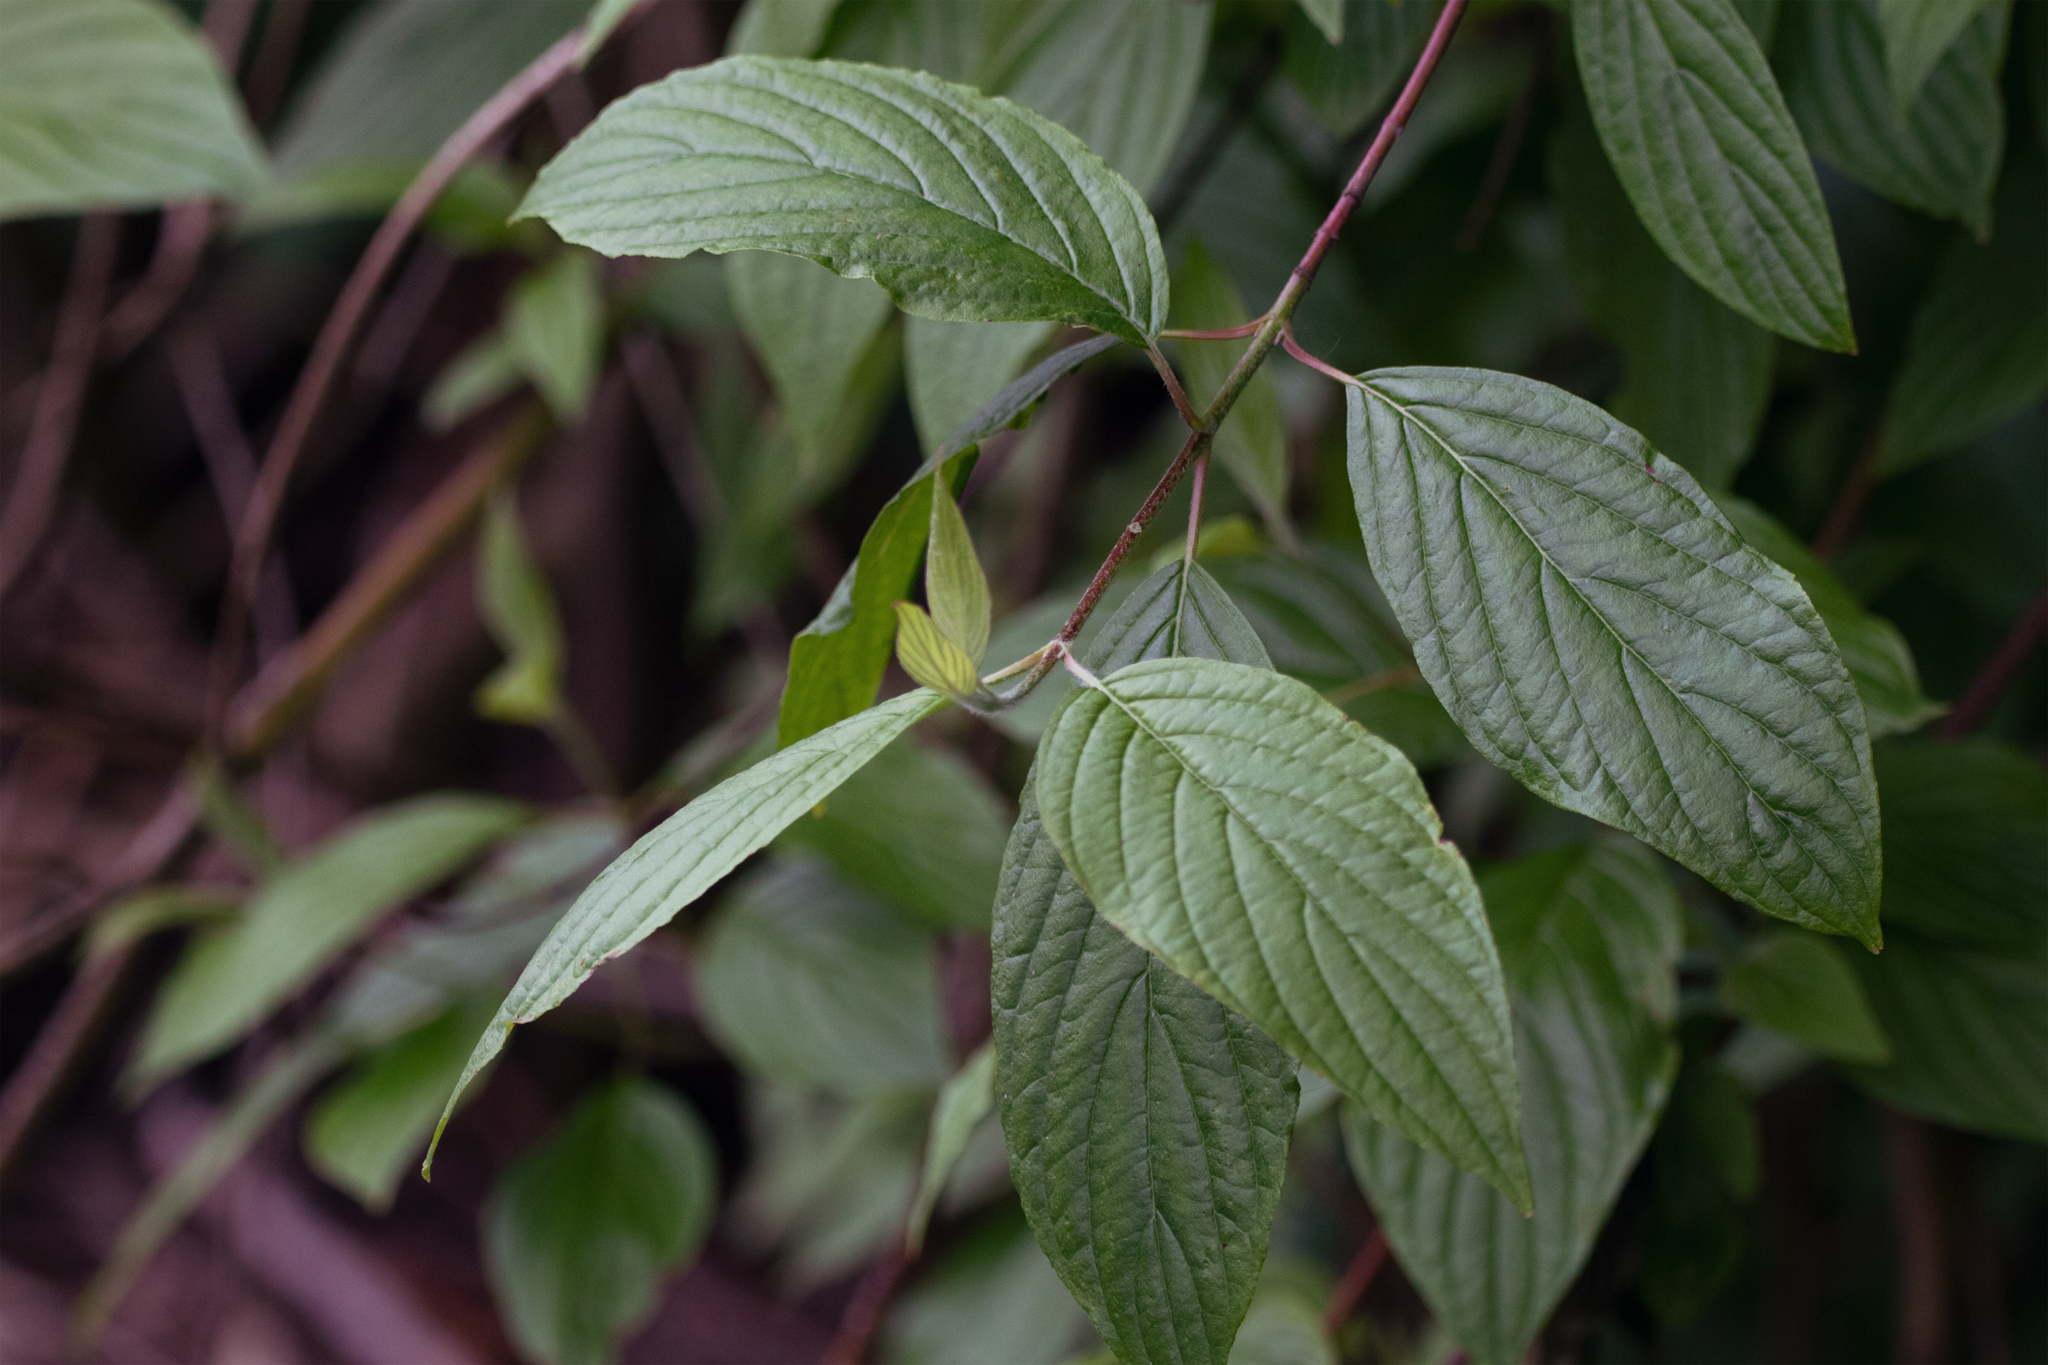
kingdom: Plantae
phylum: Tracheophyta
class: Magnoliopsida
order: Cornales
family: Cornaceae
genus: Cornus
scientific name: Cornus sericea
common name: Red-osier dogwood
